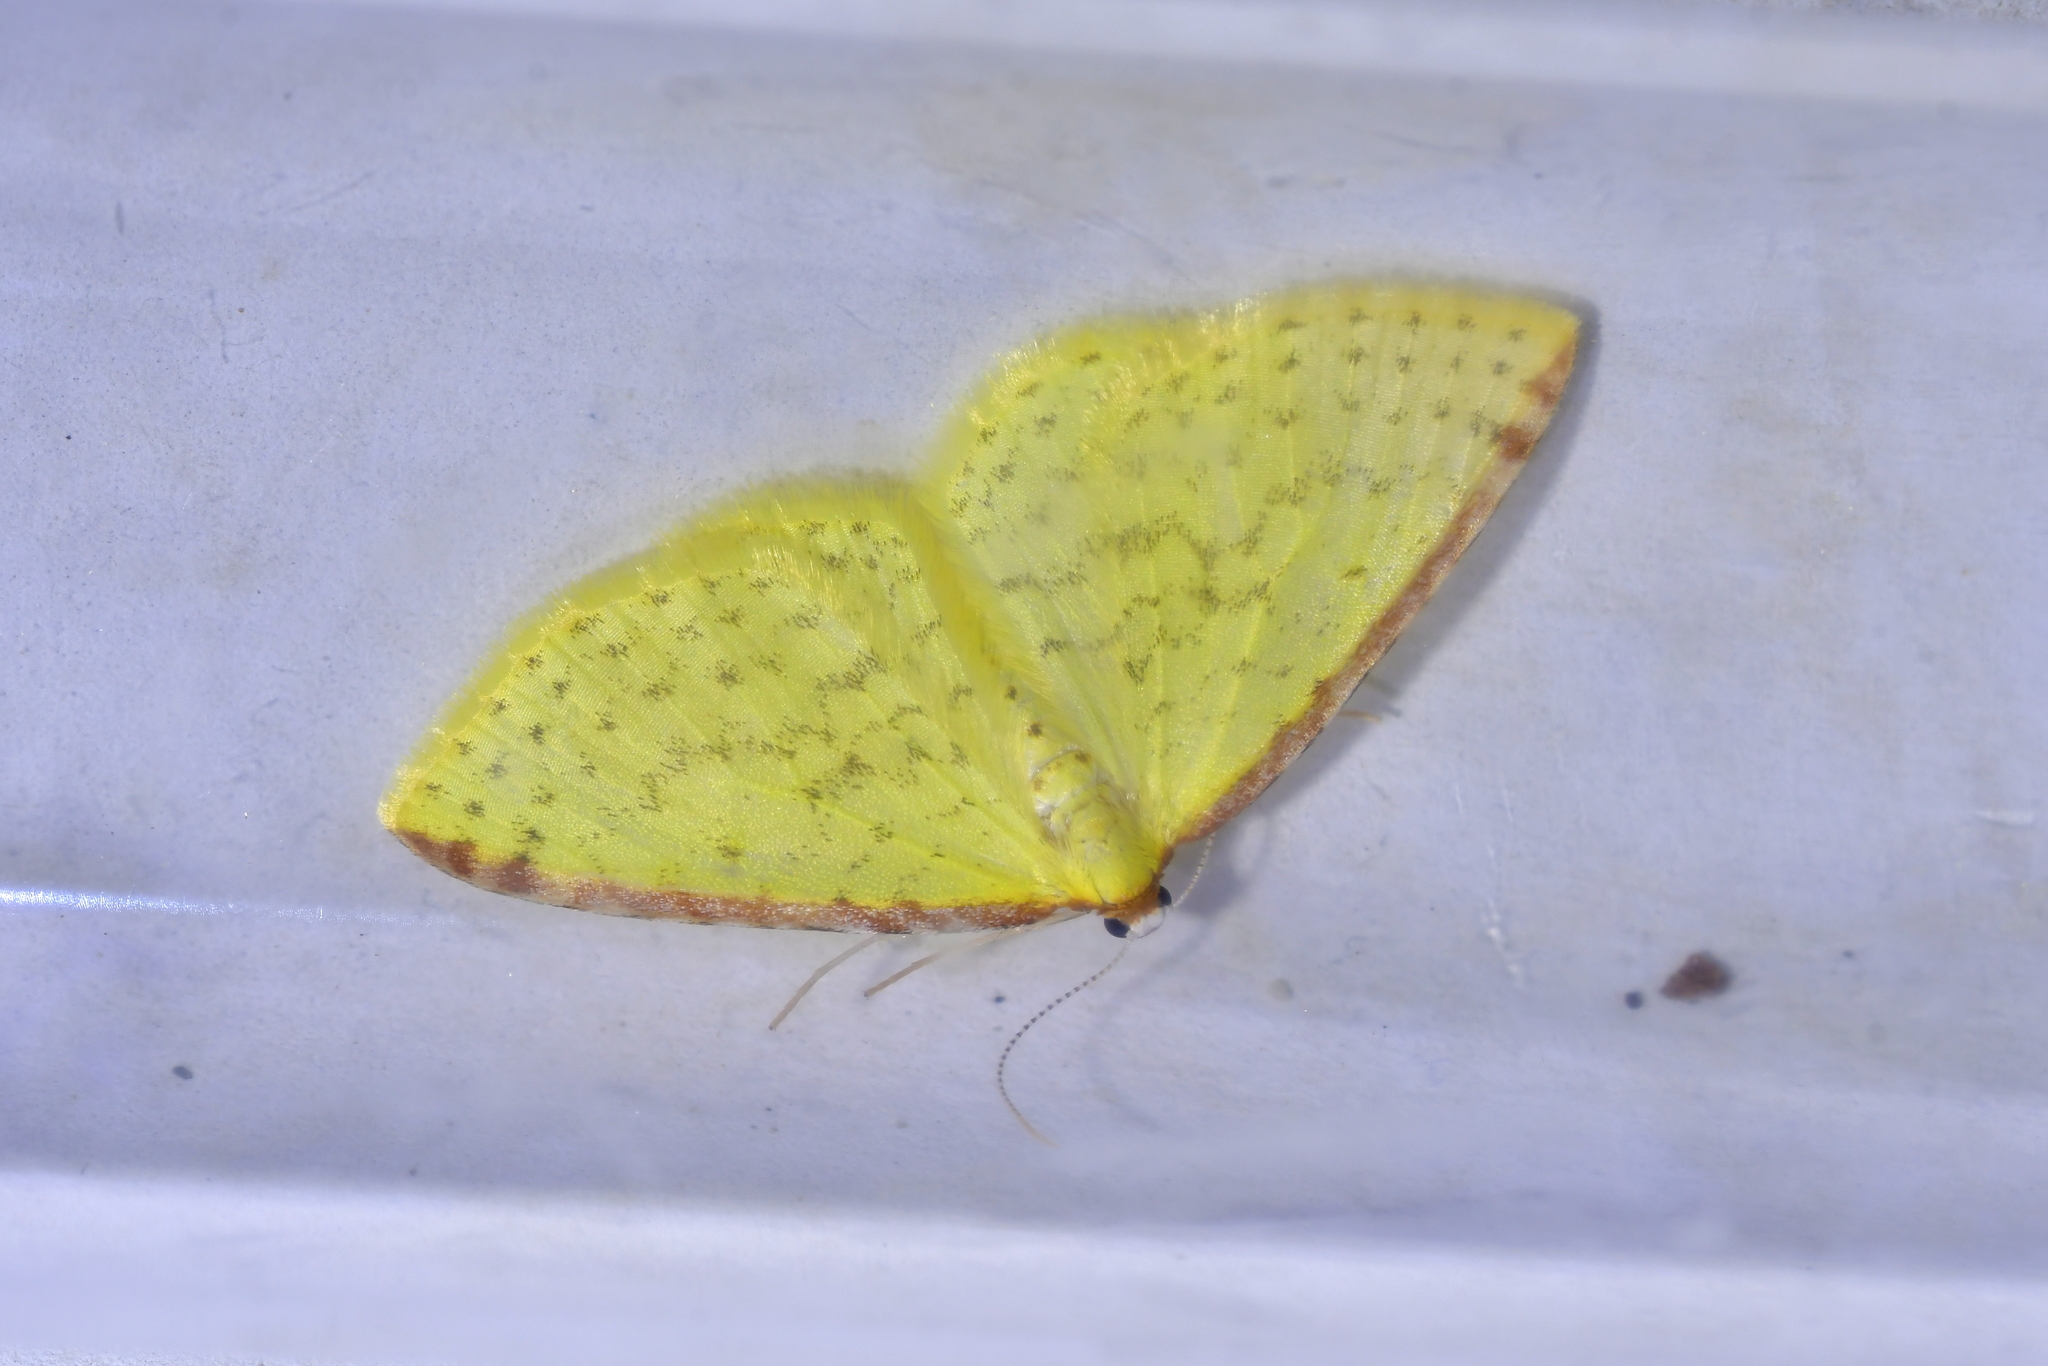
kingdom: Animalia
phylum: Arthropoda
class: Insecta
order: Lepidoptera
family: Geometridae
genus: Epiphryne
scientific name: Epiphryne undosata
